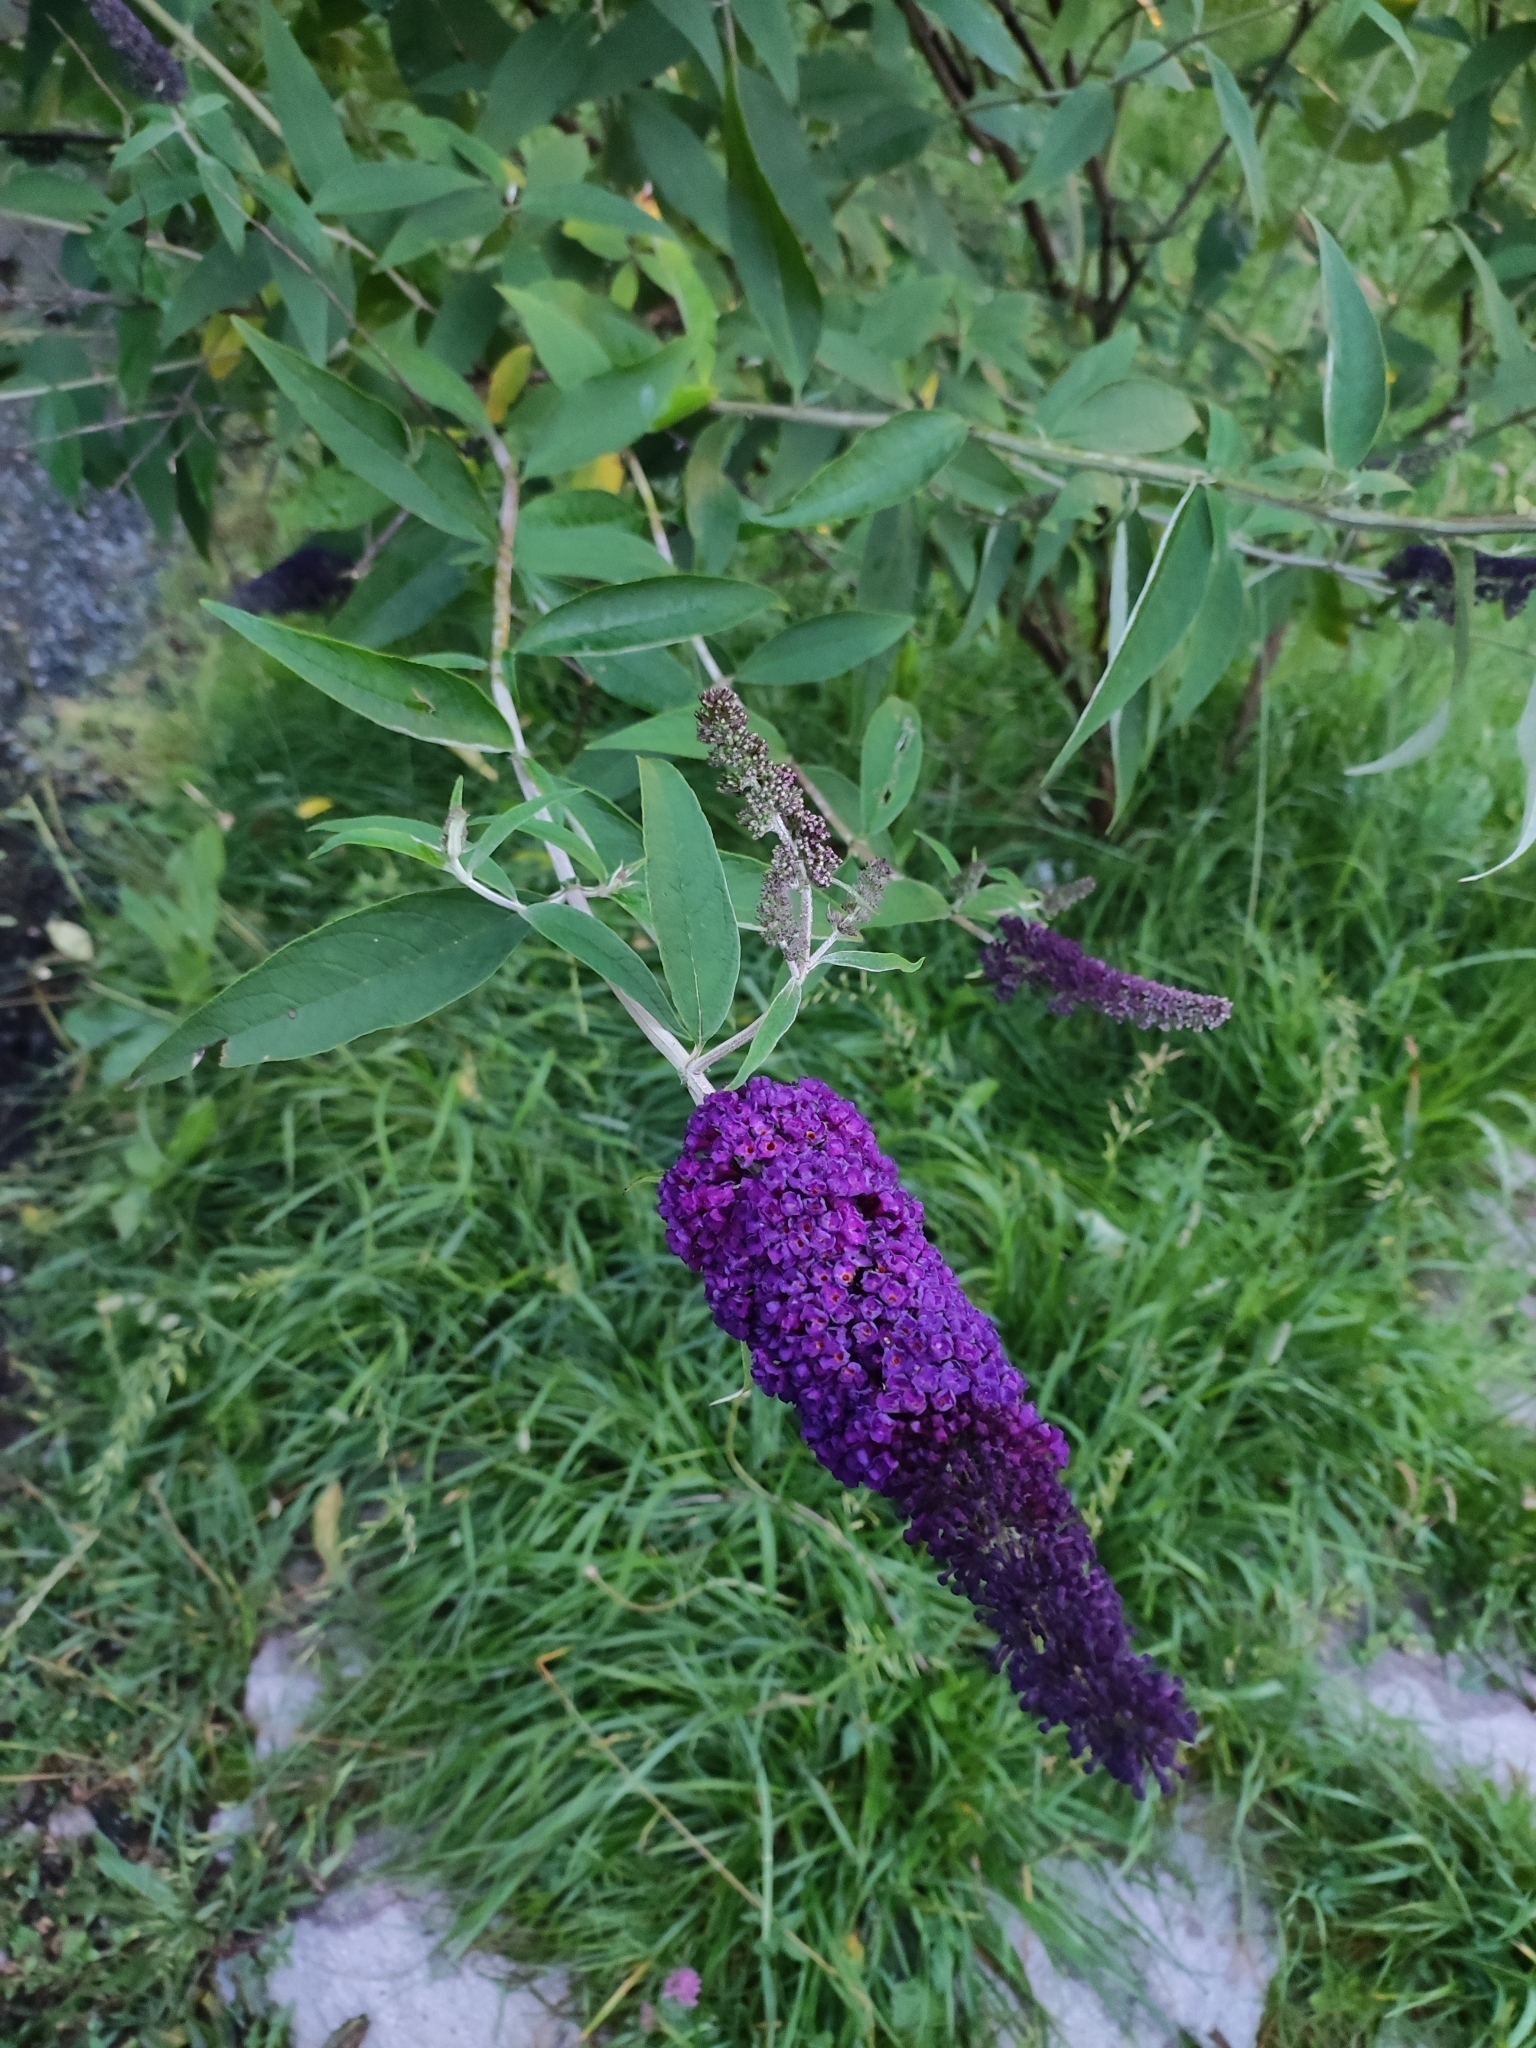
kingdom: Plantae
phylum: Tracheophyta
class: Magnoliopsida
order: Lamiales
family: Scrophulariaceae
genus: Buddleja
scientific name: Buddleja davidii
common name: Butterfly-bush
